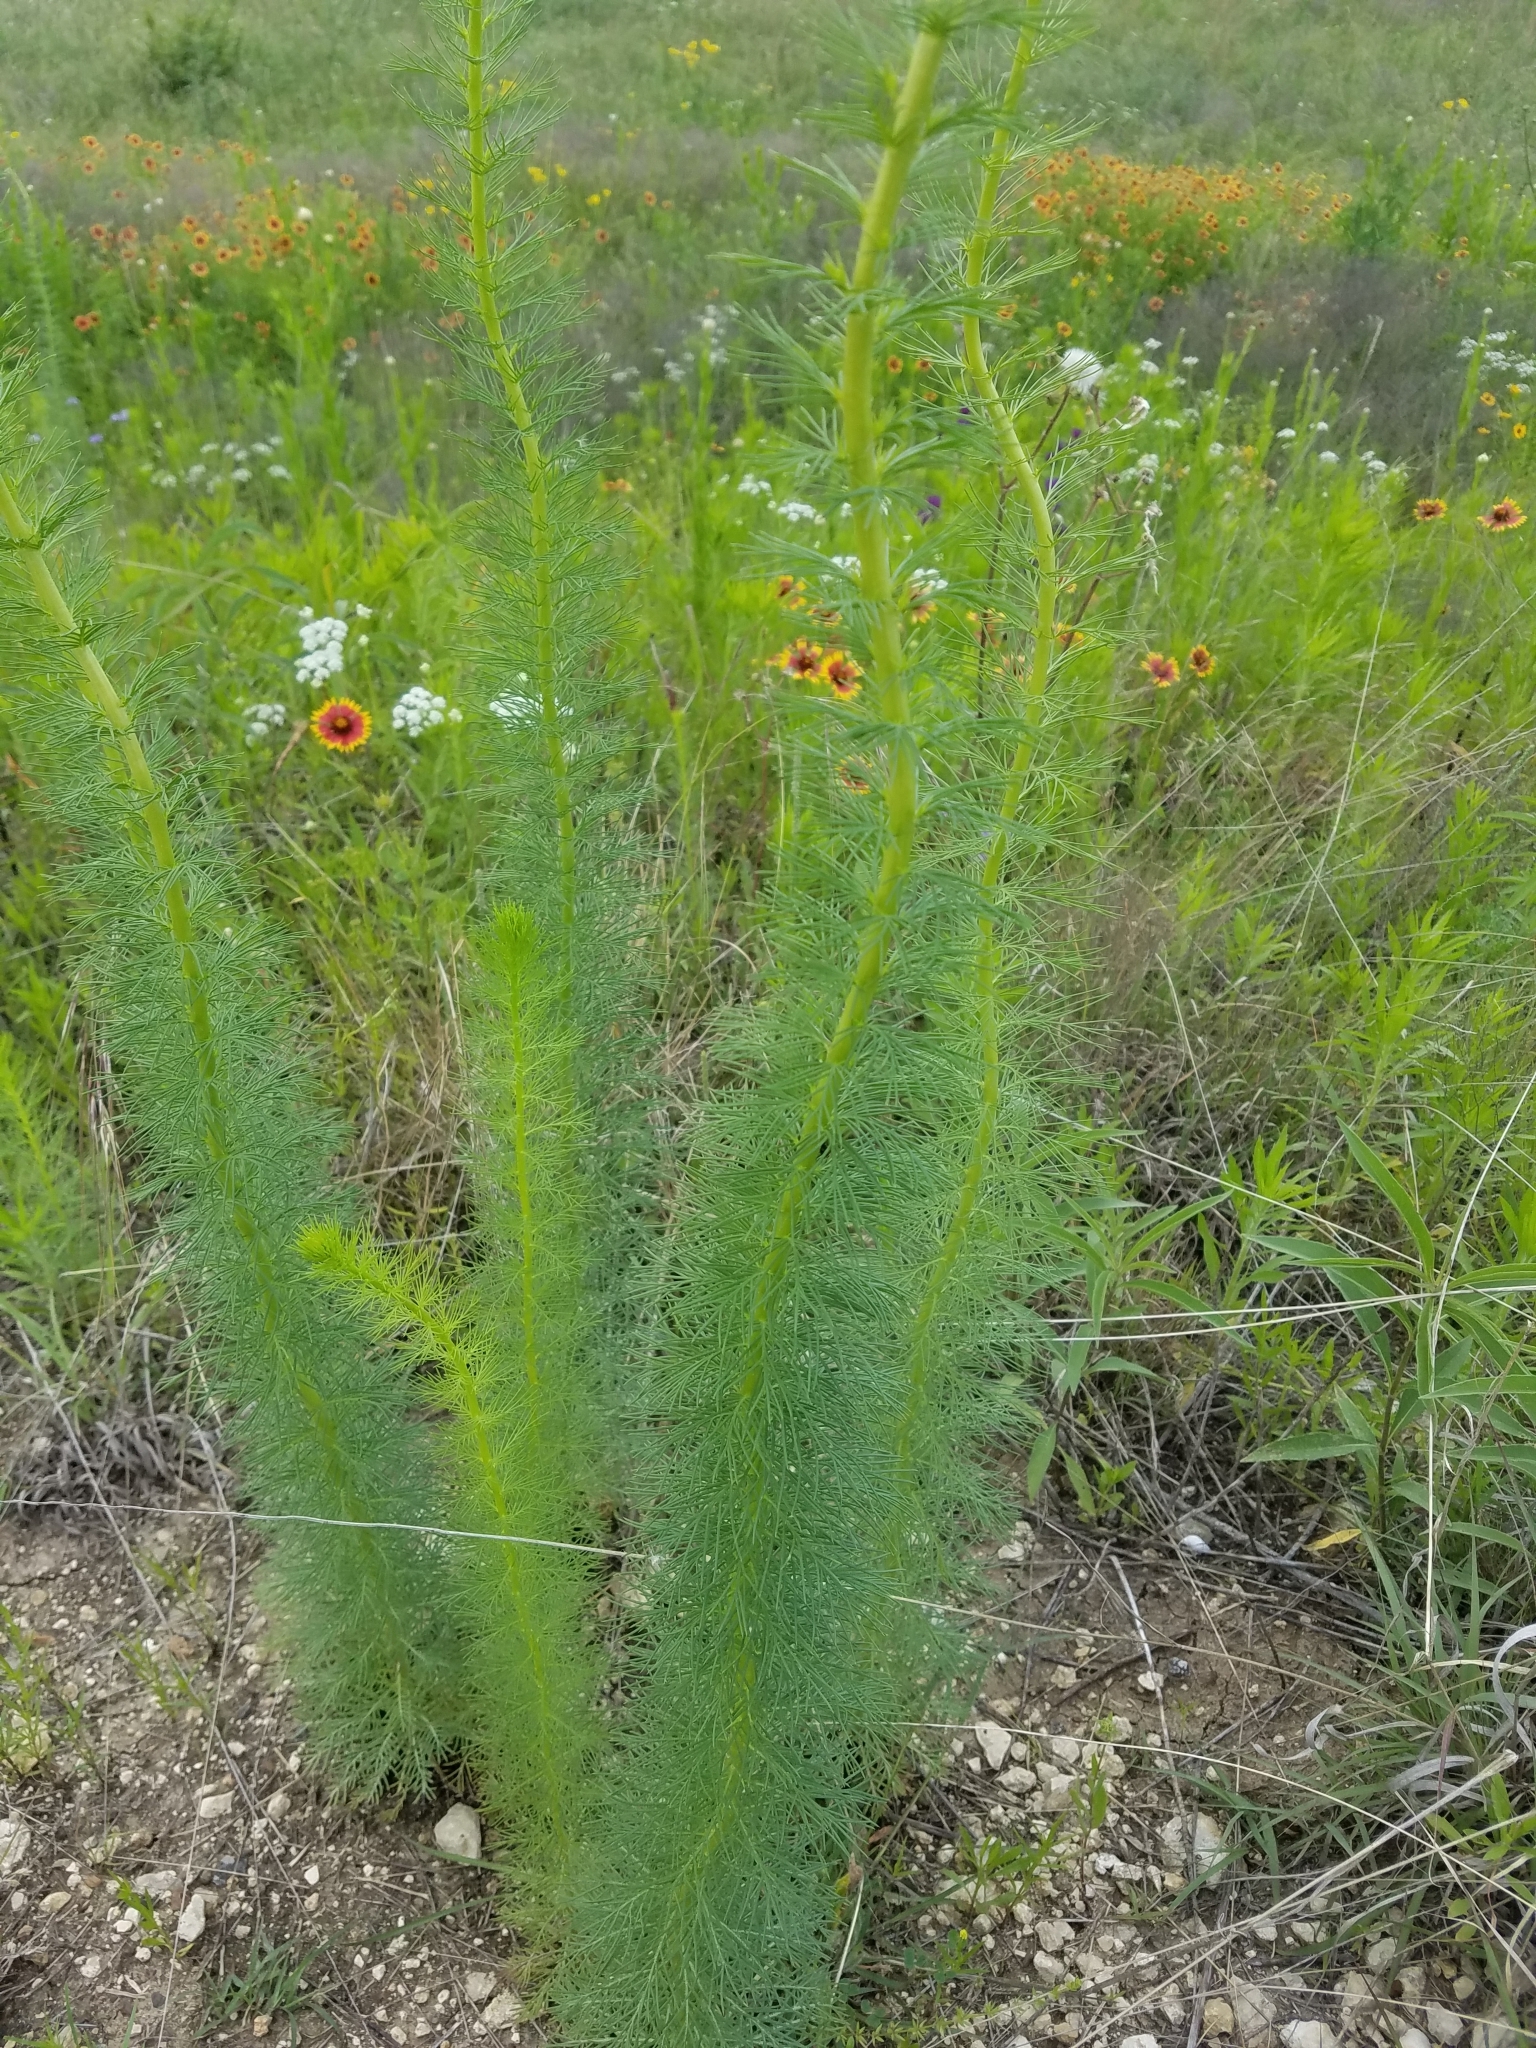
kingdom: Plantae
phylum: Tracheophyta
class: Magnoliopsida
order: Ericales
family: Polemoniaceae
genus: Ipomopsis
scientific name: Ipomopsis rubra
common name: Skyrocket
